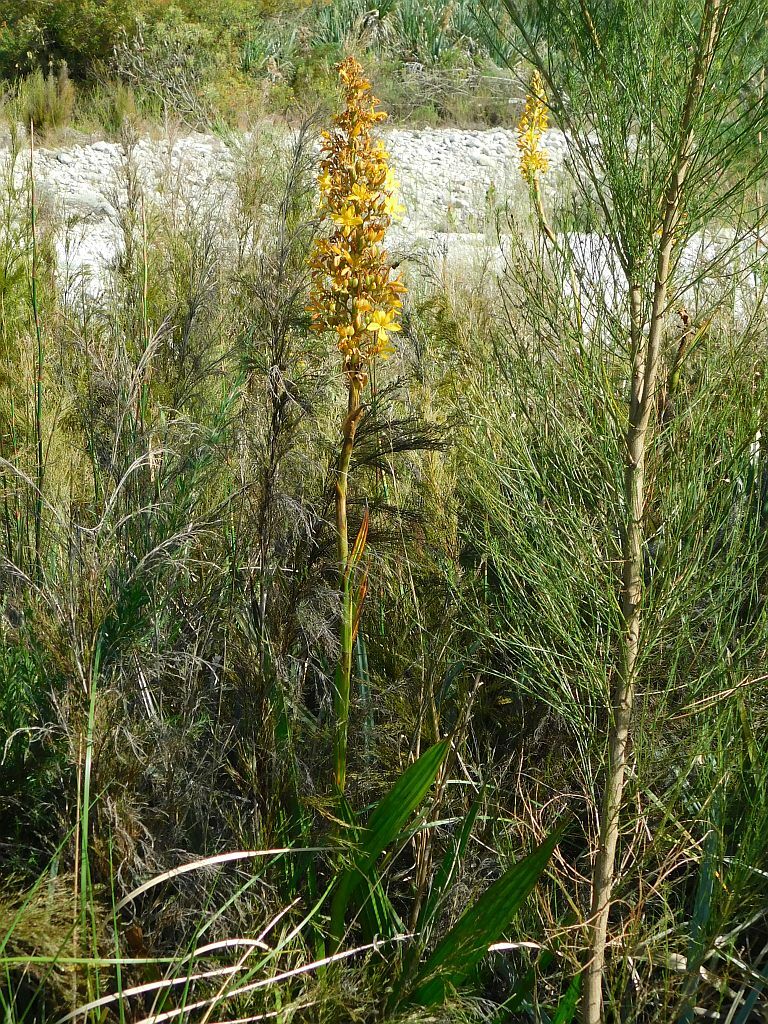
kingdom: Plantae
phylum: Tracheophyta
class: Liliopsida
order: Commelinales
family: Haemodoraceae
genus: Wachendorfia
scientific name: Wachendorfia thyrsiflora
